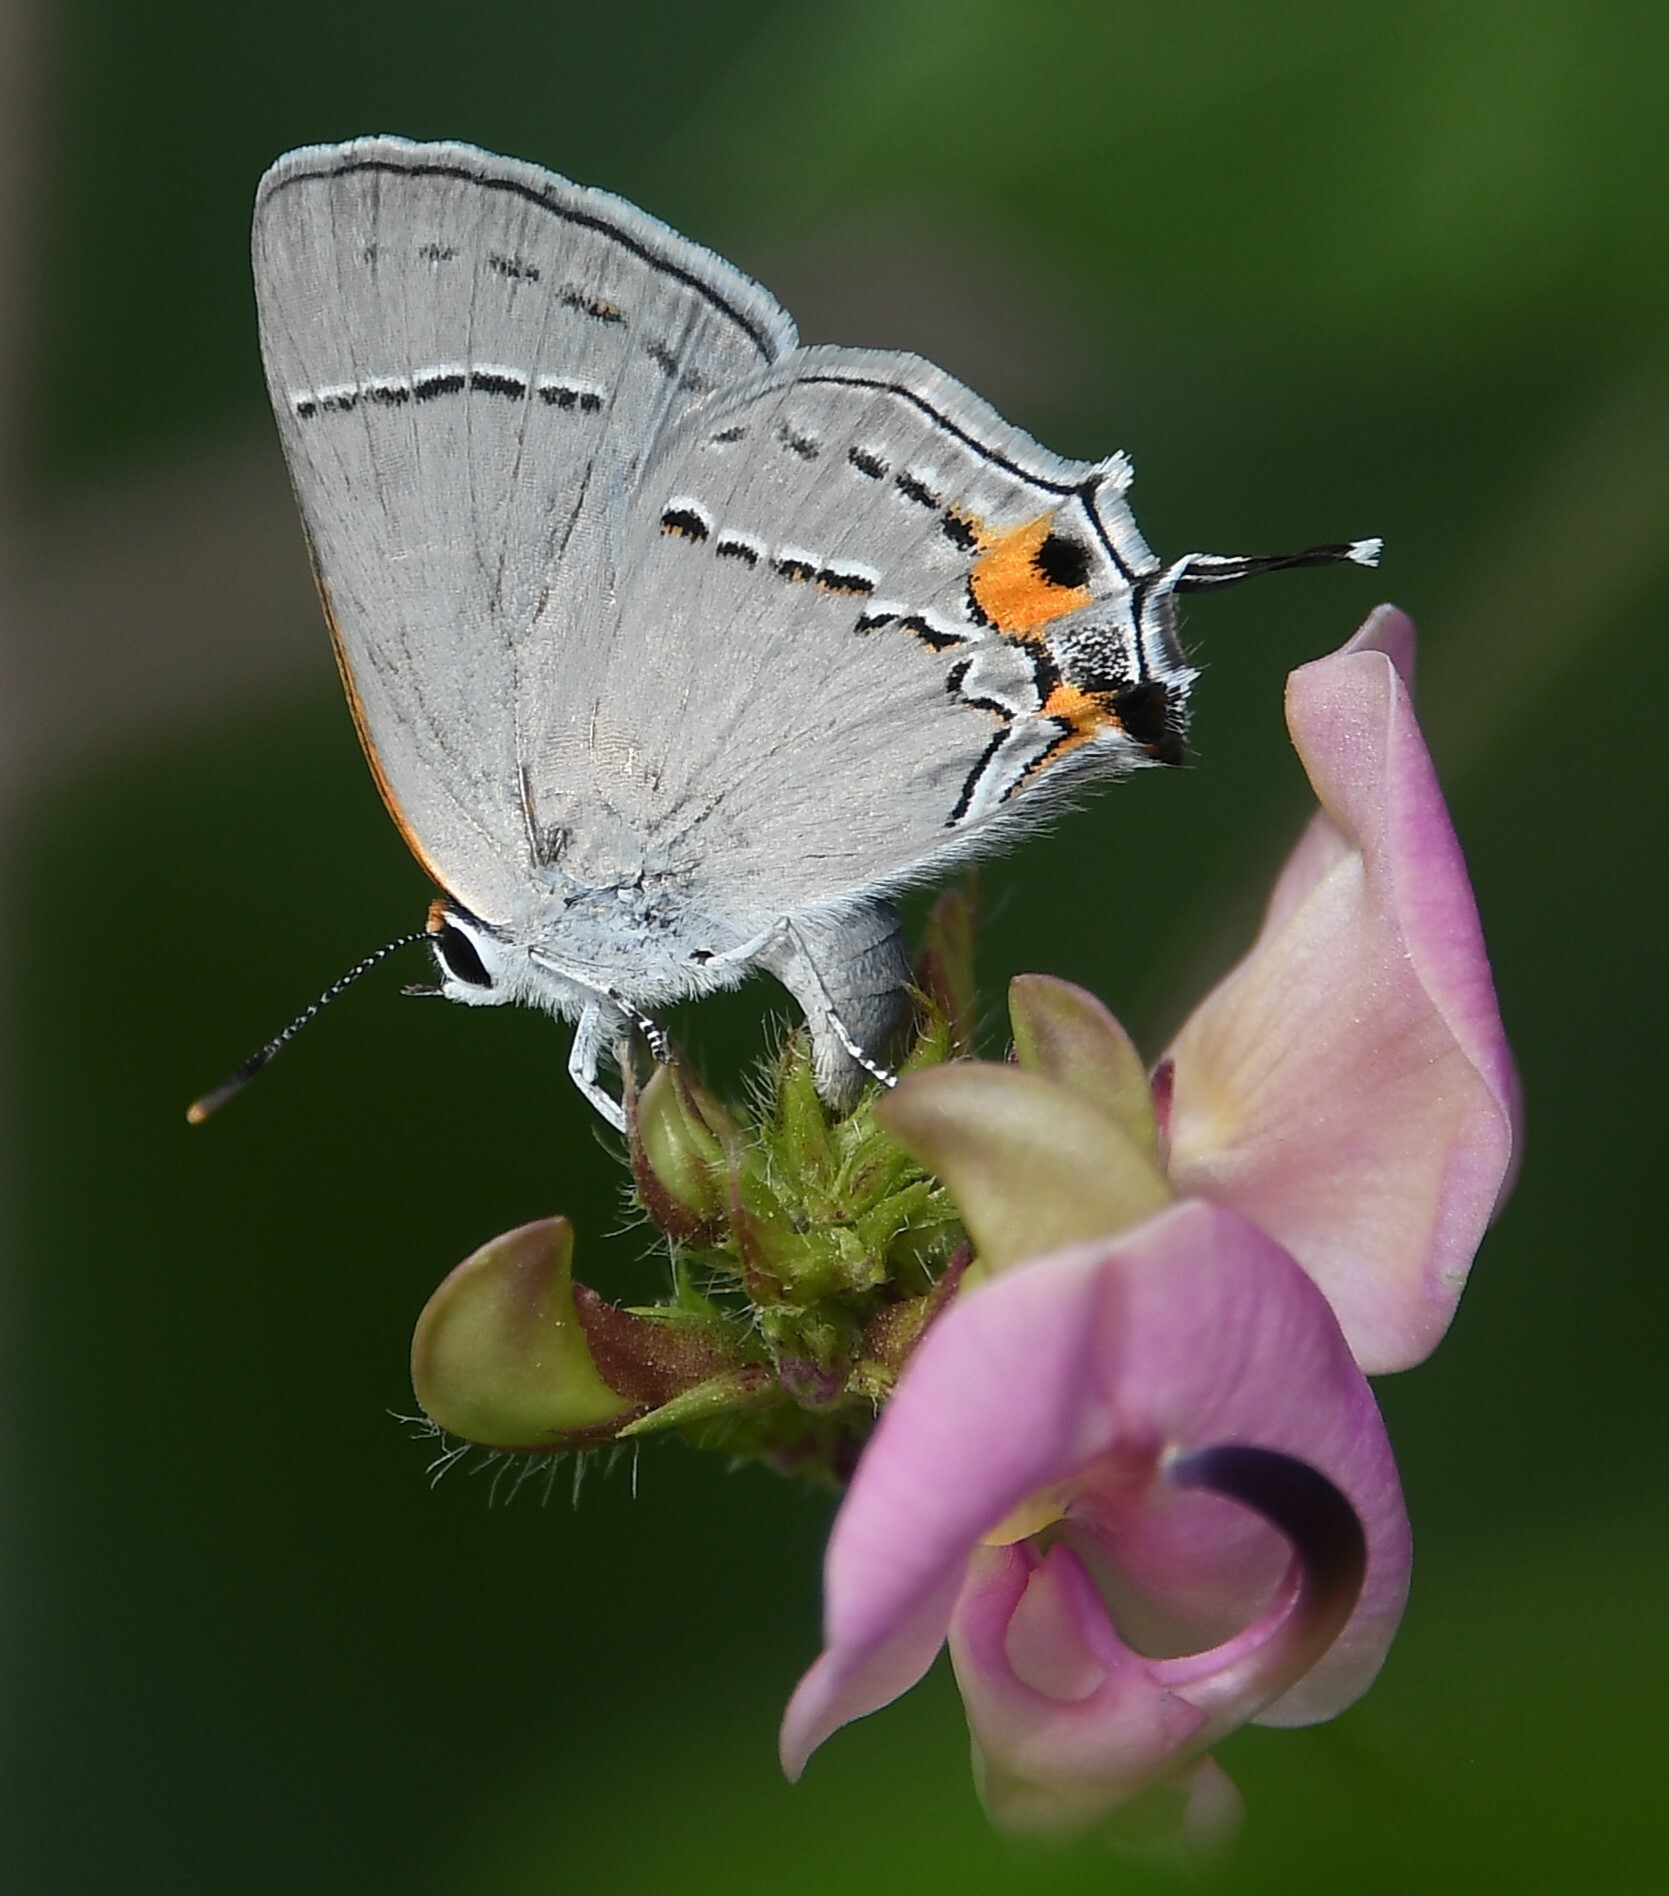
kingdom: Animalia
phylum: Arthropoda
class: Insecta
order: Lepidoptera
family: Lycaenidae
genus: Strymon
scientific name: Strymon melinus
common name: Gray hairstreak
